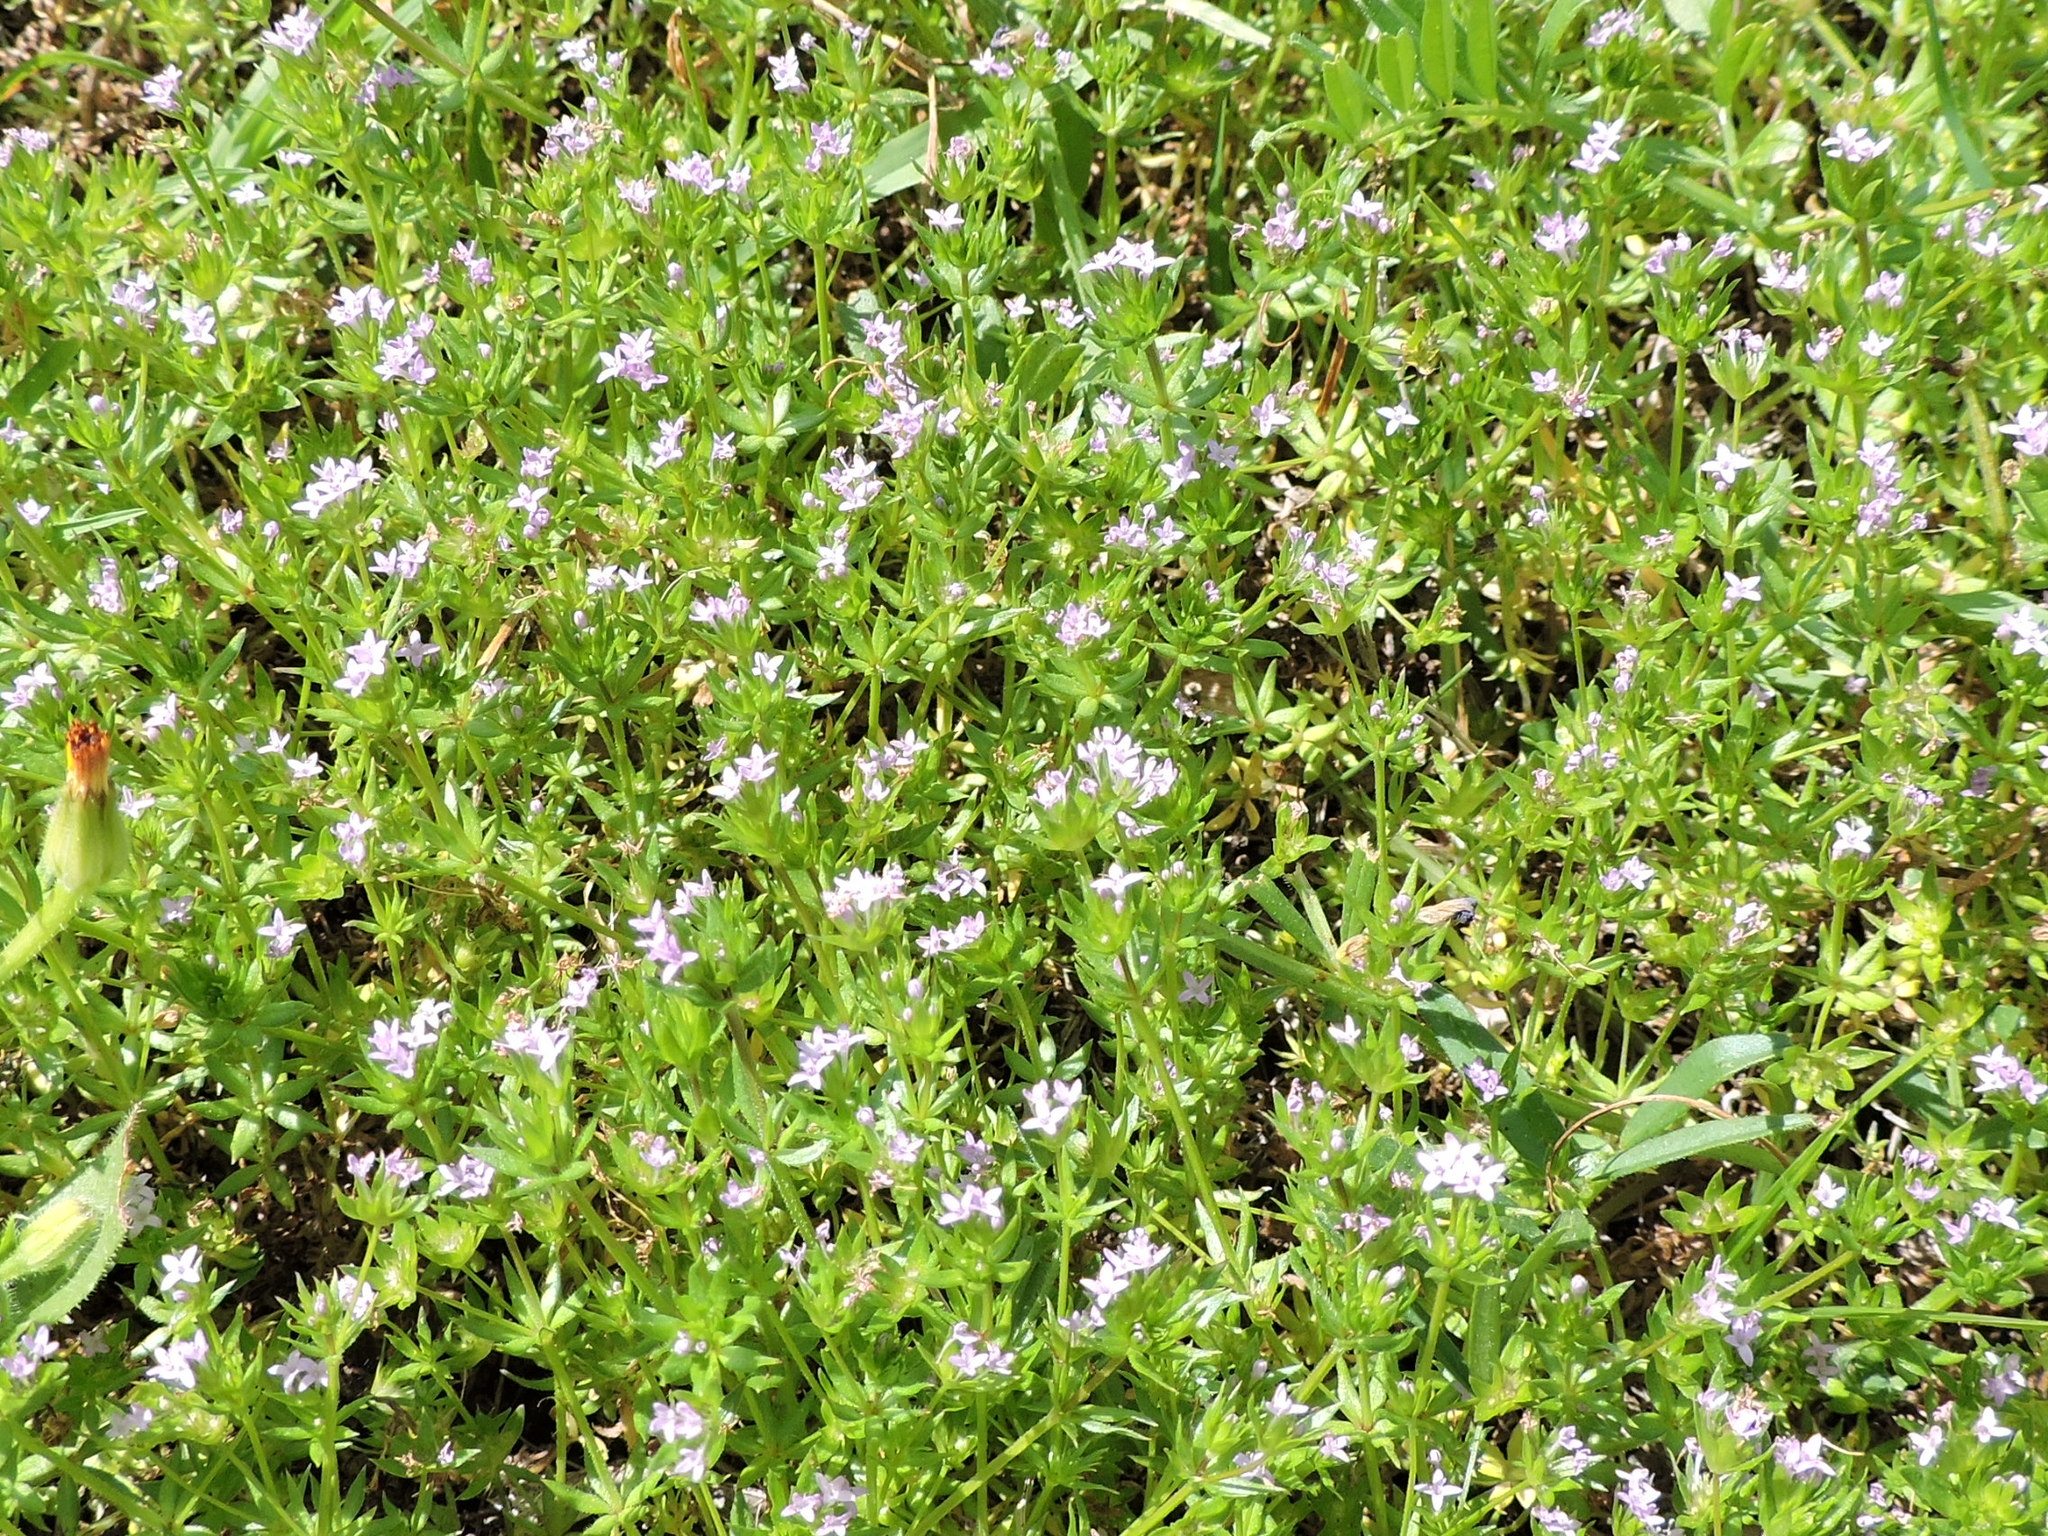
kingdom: Plantae
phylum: Tracheophyta
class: Magnoliopsida
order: Gentianales
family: Rubiaceae
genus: Sherardia
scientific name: Sherardia arvensis
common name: Field madder
